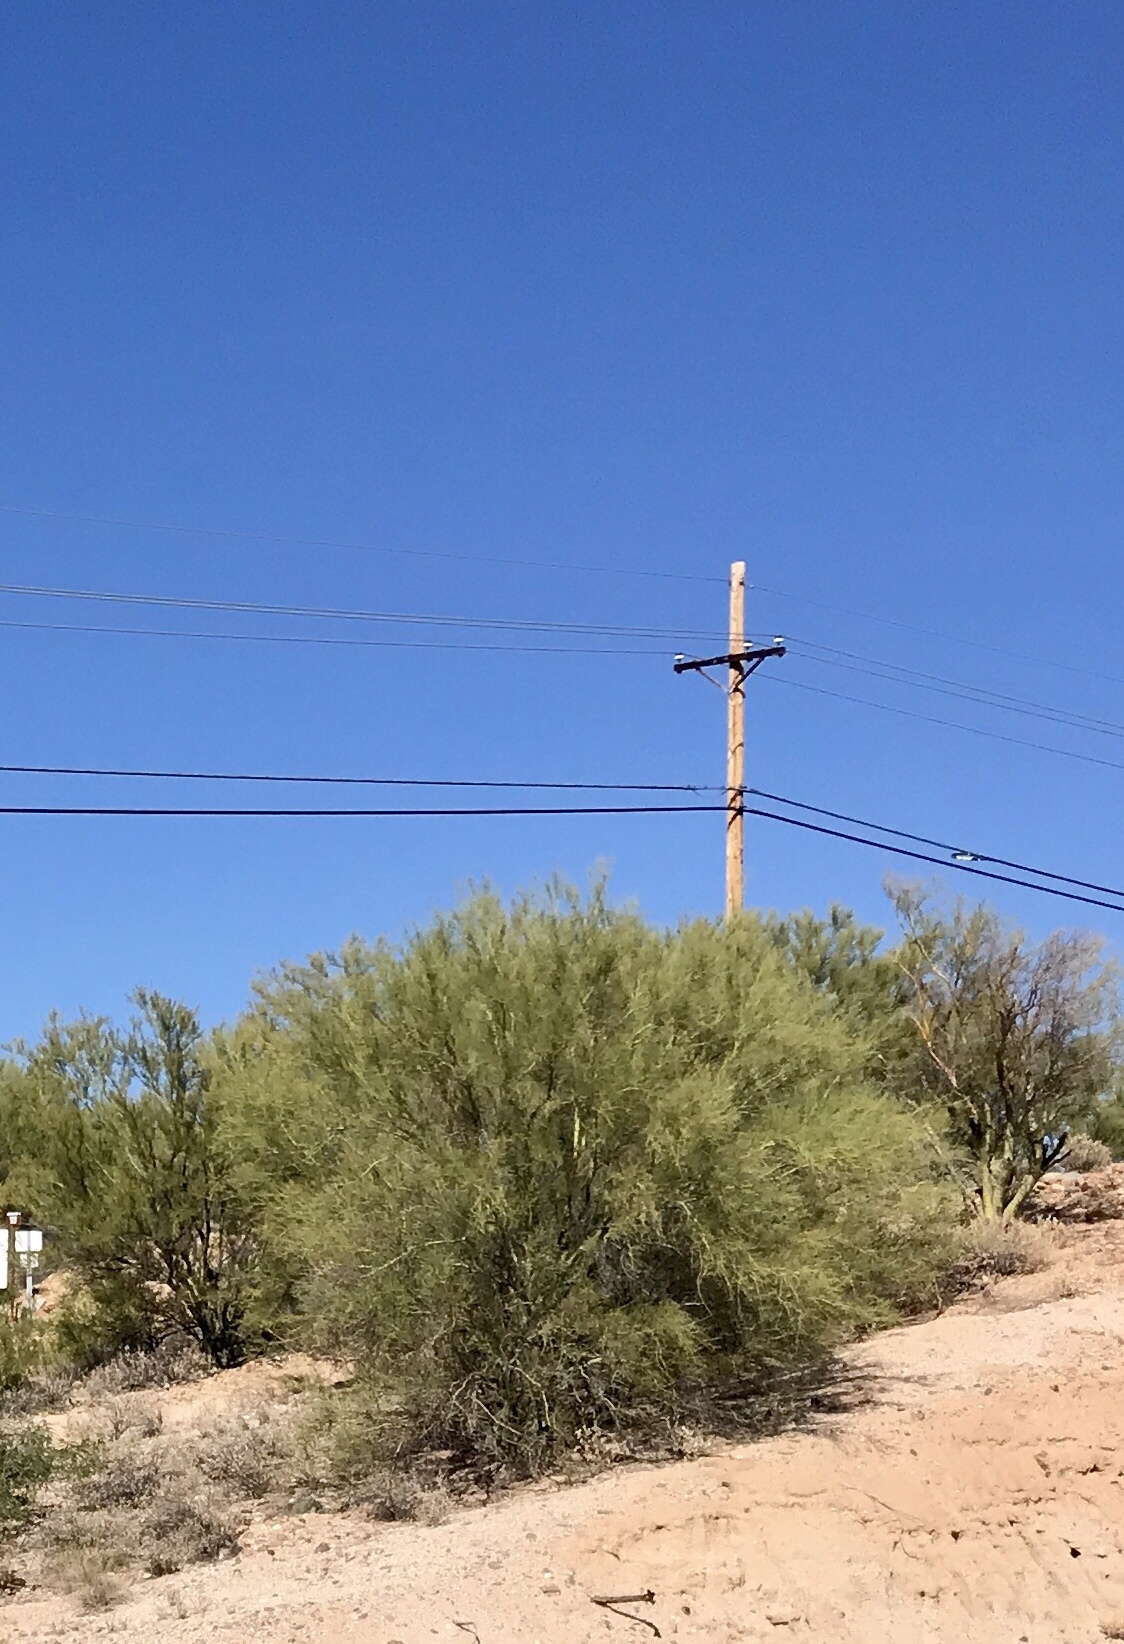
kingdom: Plantae
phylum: Tracheophyta
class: Magnoliopsida
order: Fabales
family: Fabaceae
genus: Parkinsonia
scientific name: Parkinsonia florida
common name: Blue paloverde
